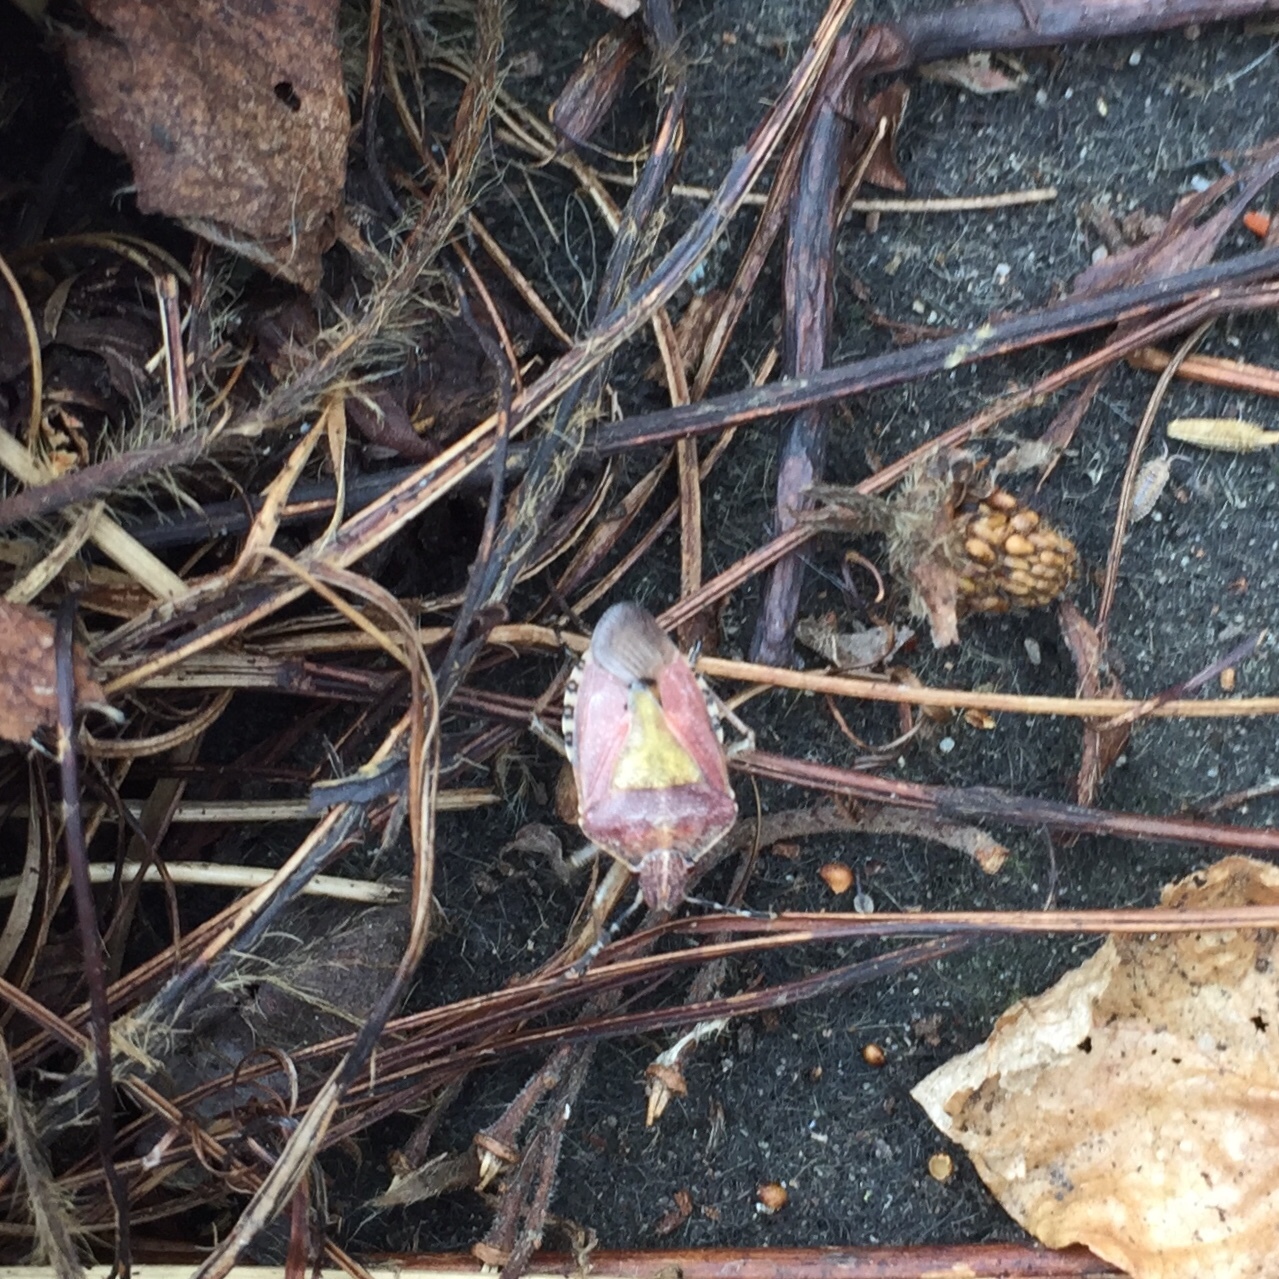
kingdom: Animalia
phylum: Arthropoda
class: Insecta
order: Hemiptera
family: Pentatomidae
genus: Dolycoris
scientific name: Dolycoris baccarum
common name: Sloe bug
